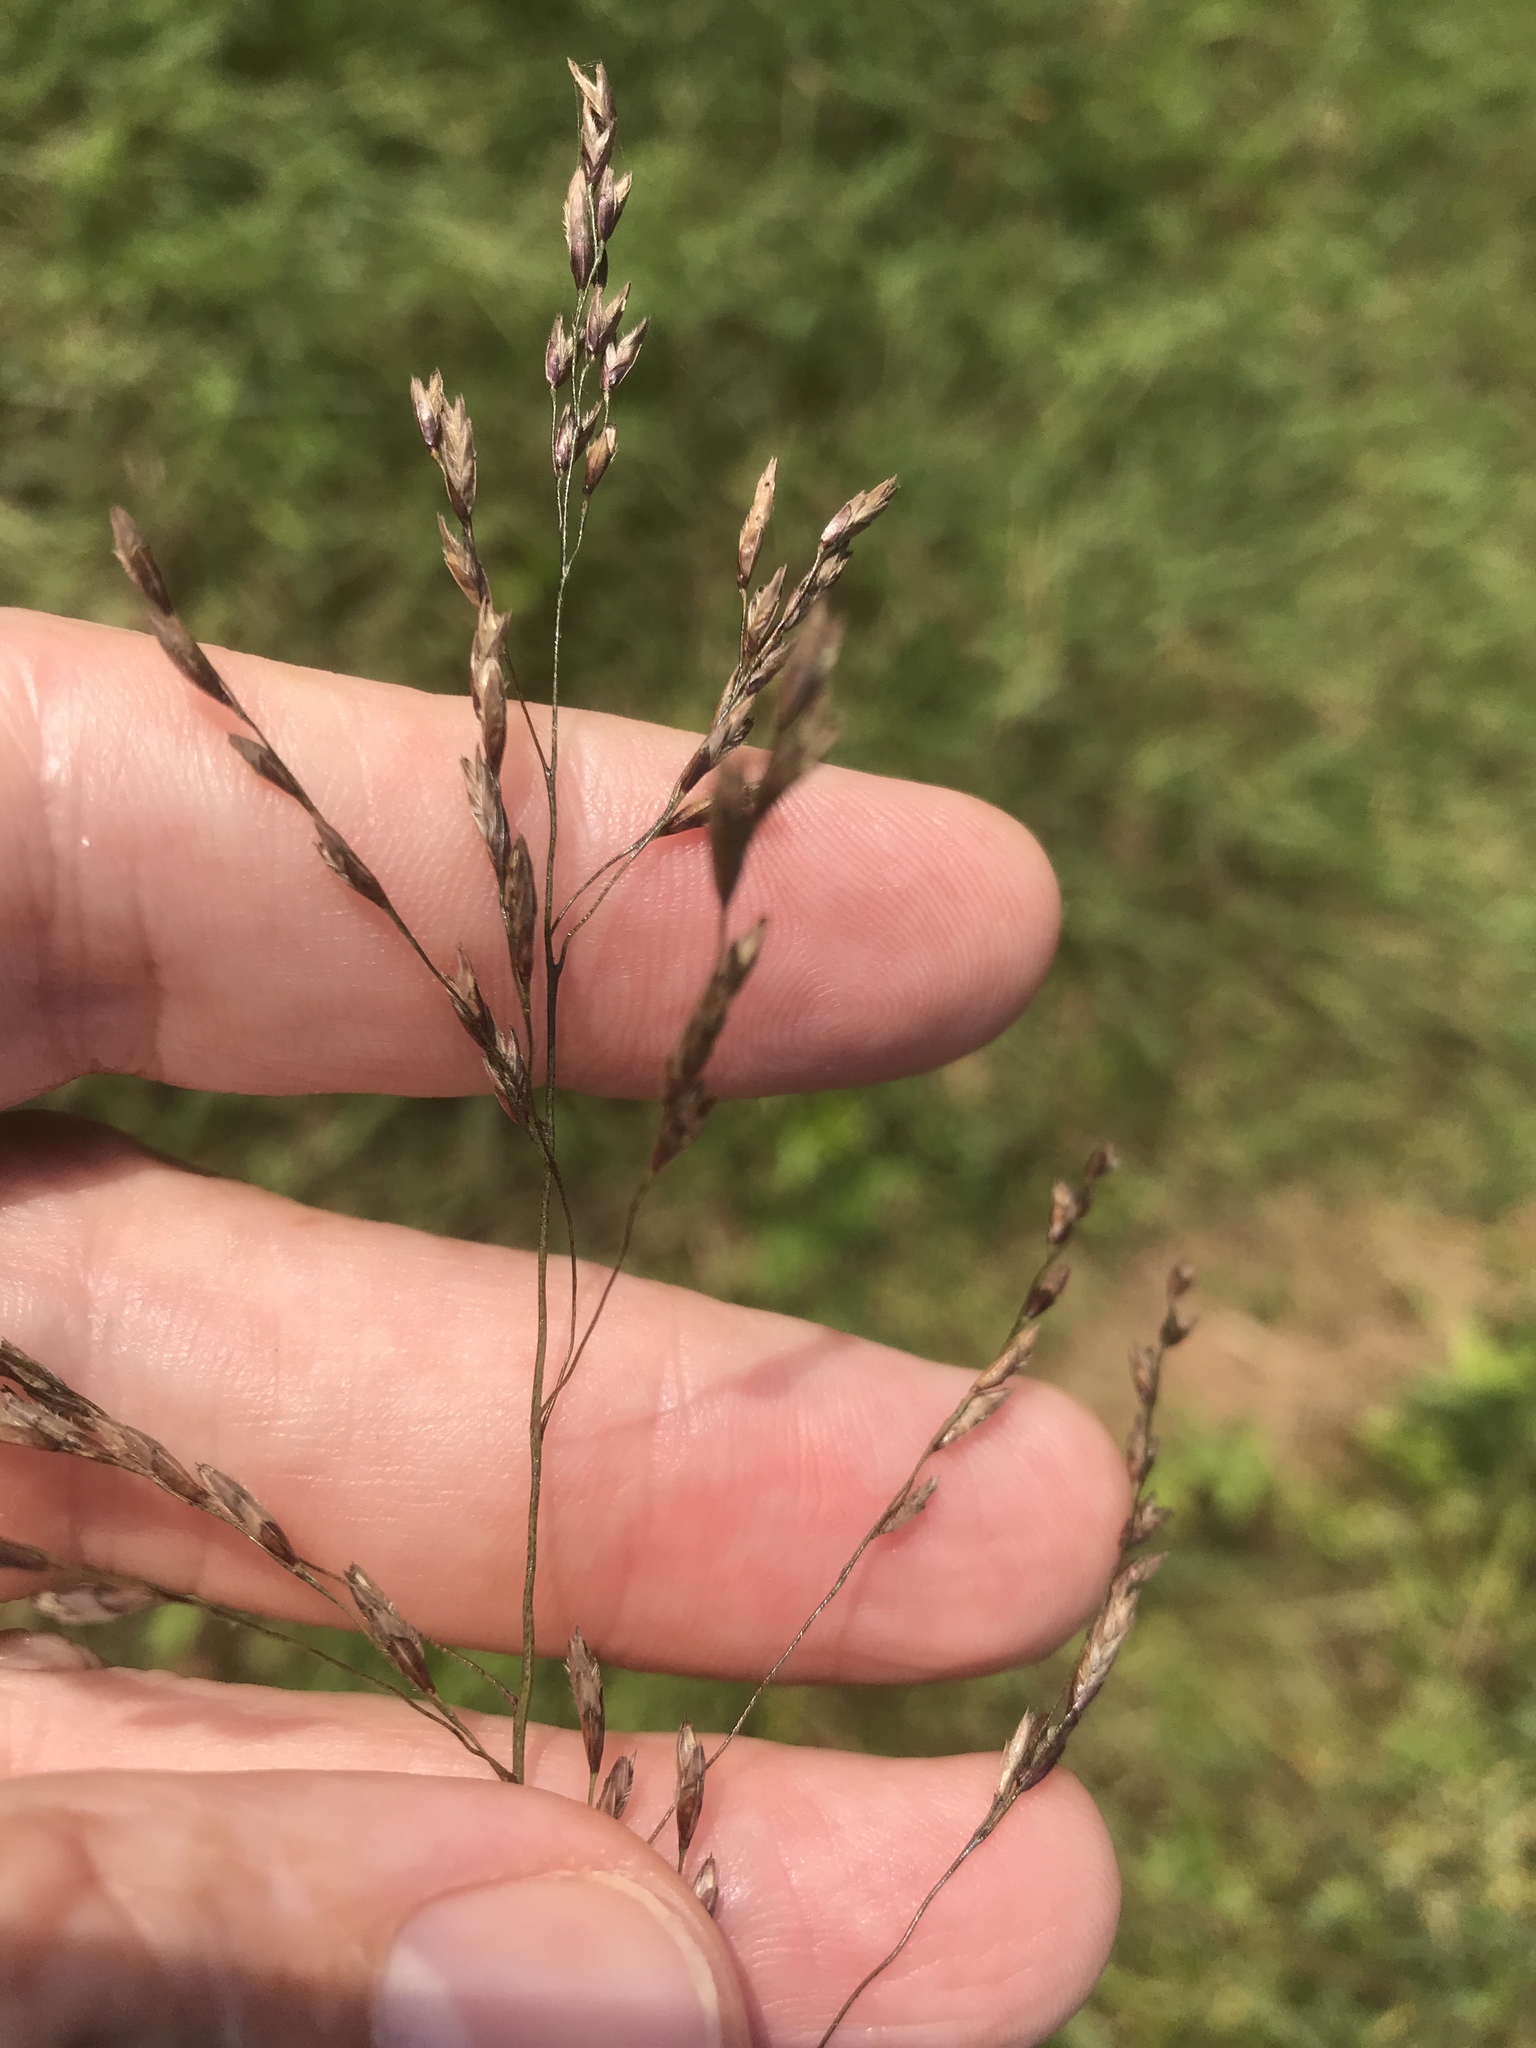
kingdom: Plantae
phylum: Tracheophyta
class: Liliopsida
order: Poales
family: Poaceae
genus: Tridens
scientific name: Tridens flavus
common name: Purpletop
